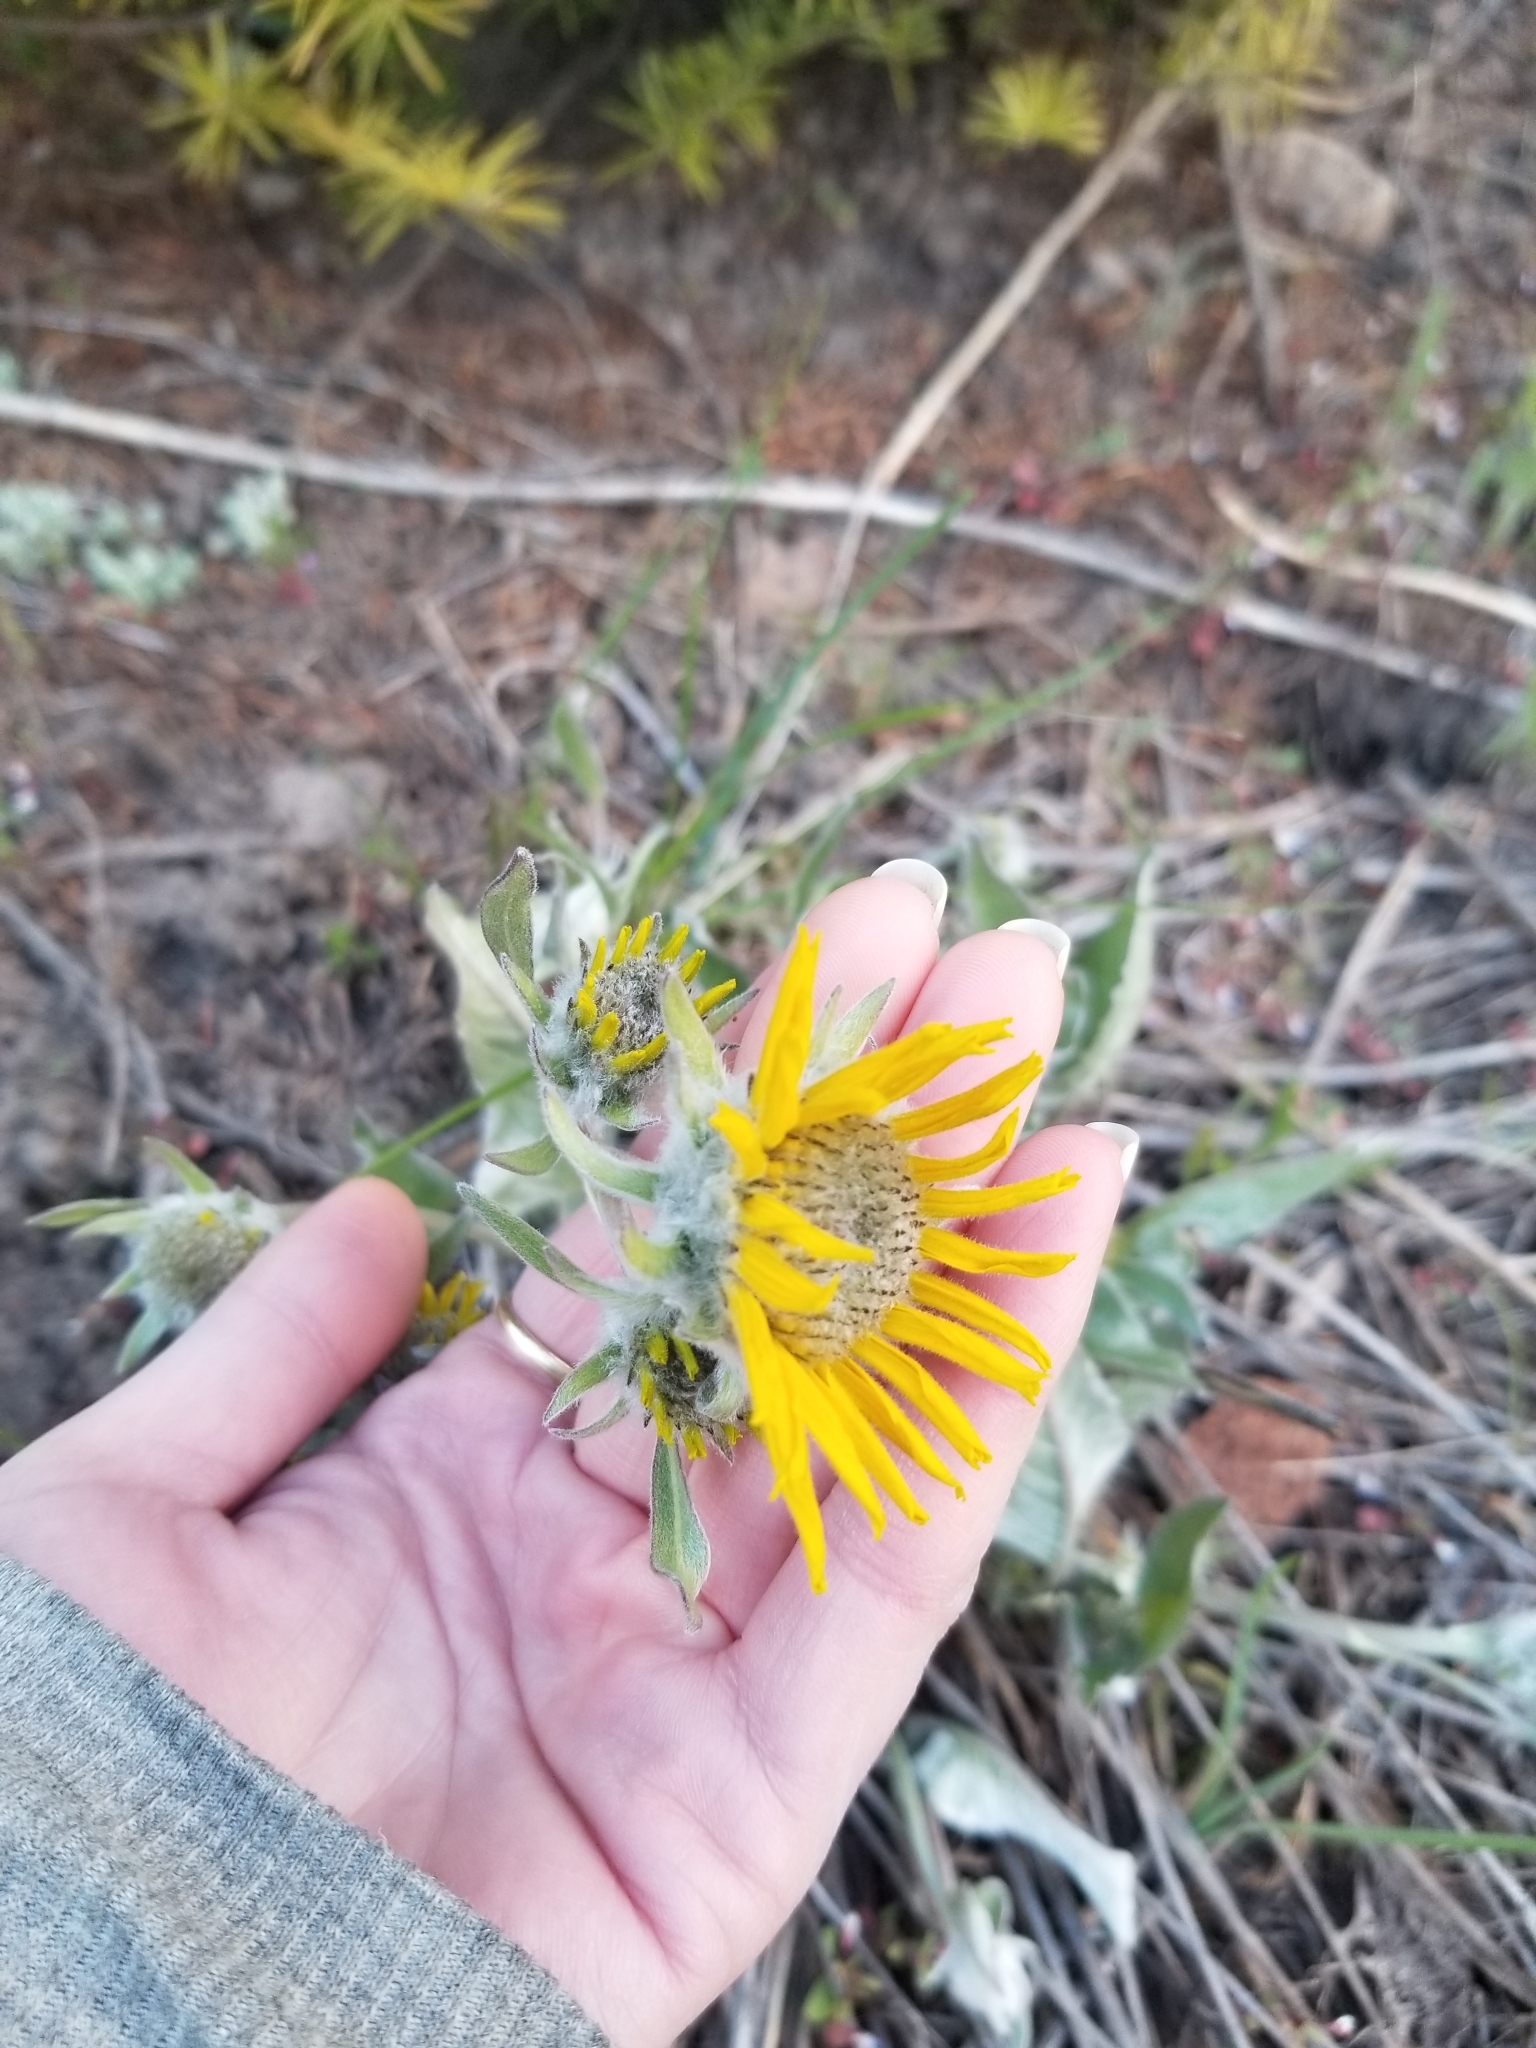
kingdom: Plantae
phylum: Tracheophyta
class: Magnoliopsida
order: Asterales
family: Asteraceae
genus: Wyethia
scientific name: Wyethia sagittata
